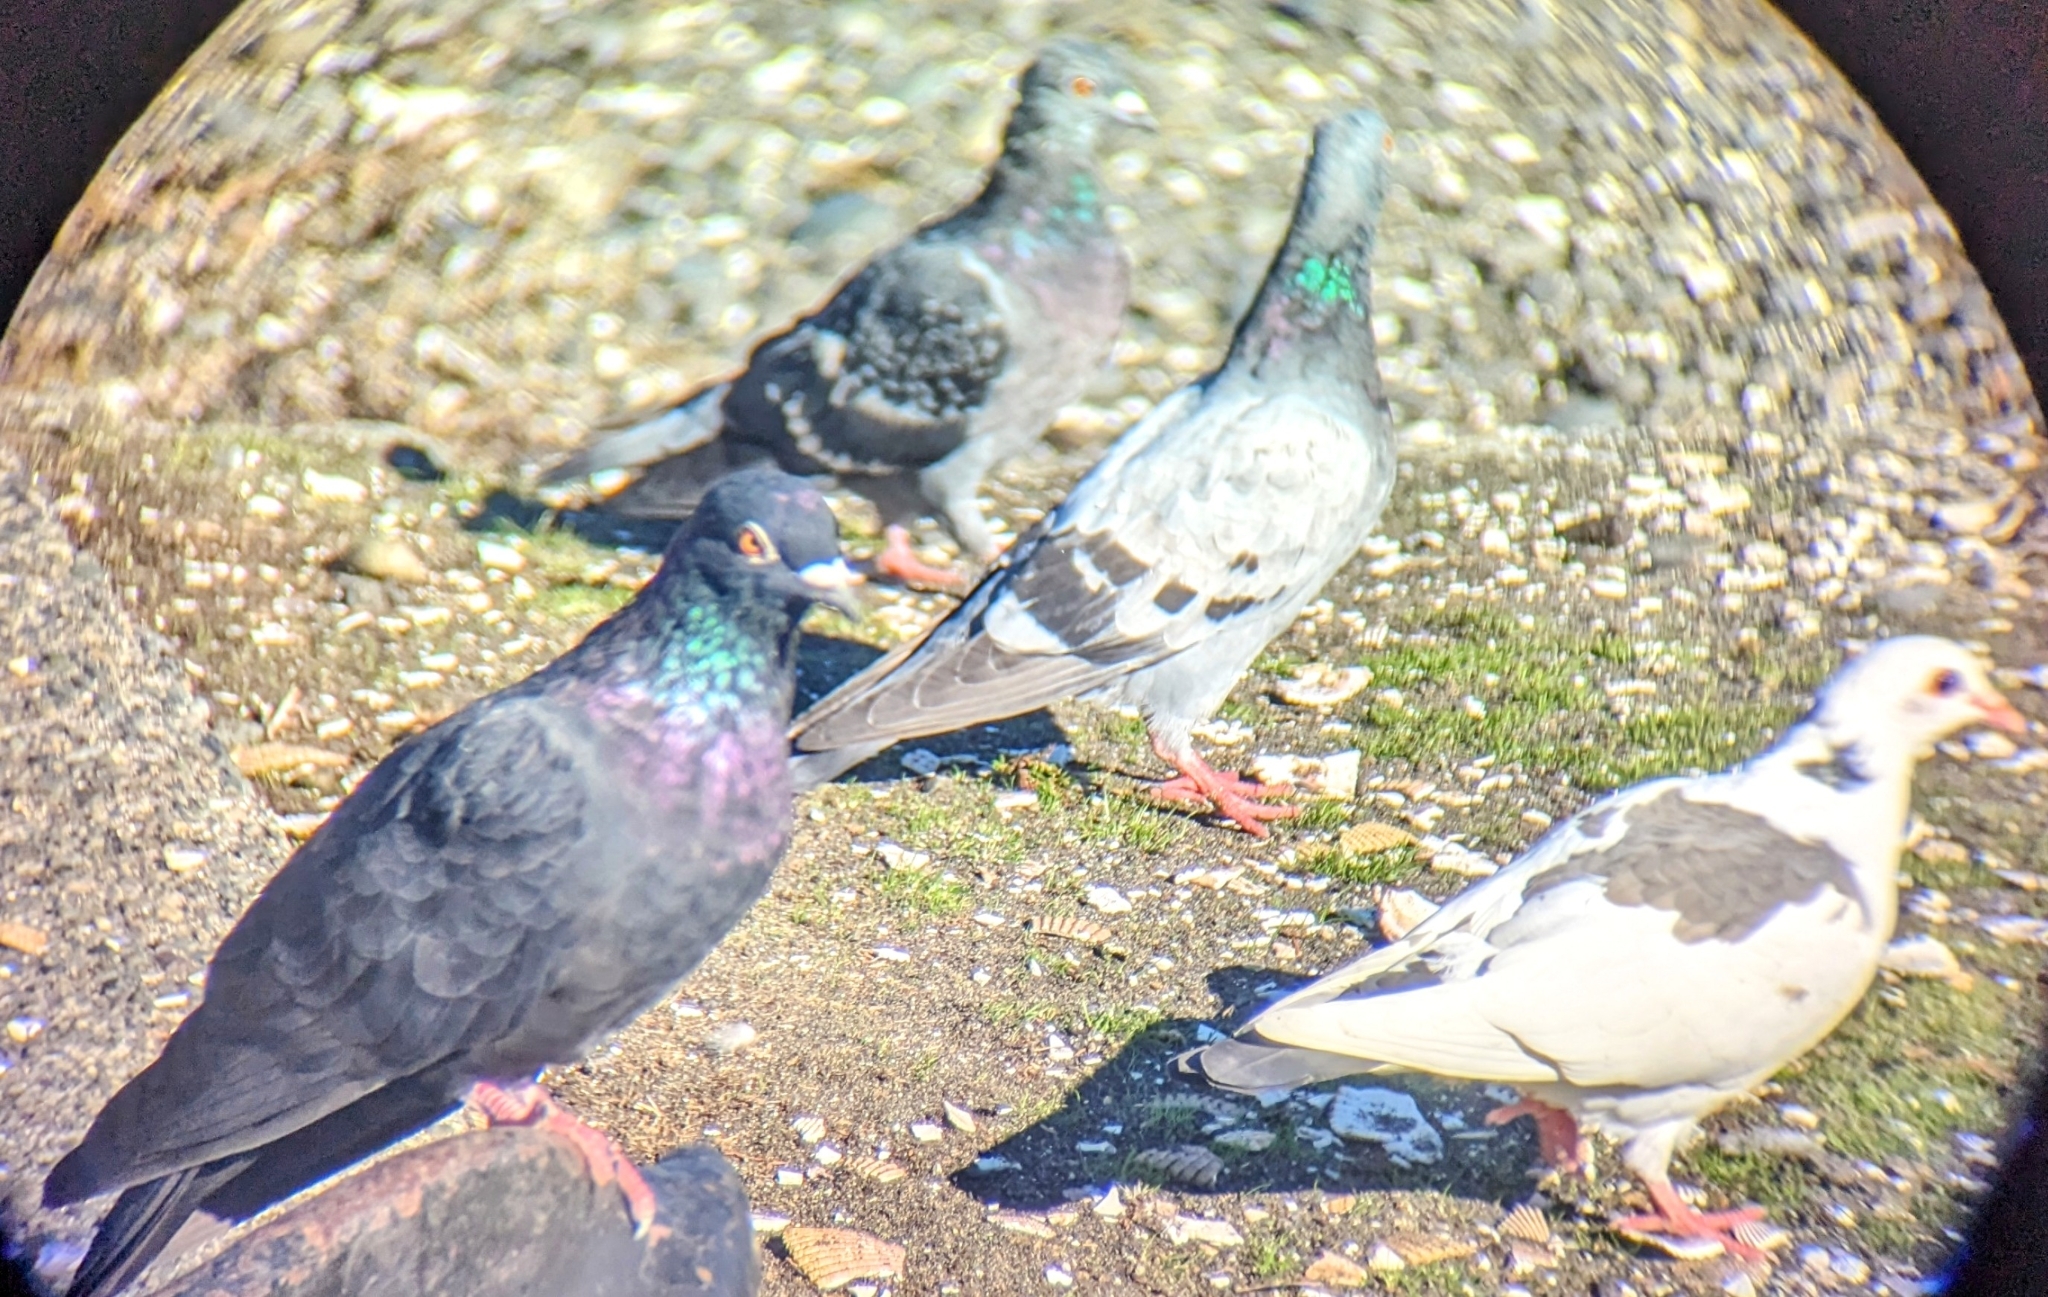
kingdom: Animalia
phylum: Chordata
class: Aves
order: Columbiformes
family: Columbidae
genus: Columba
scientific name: Columba livia
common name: Rock pigeon
